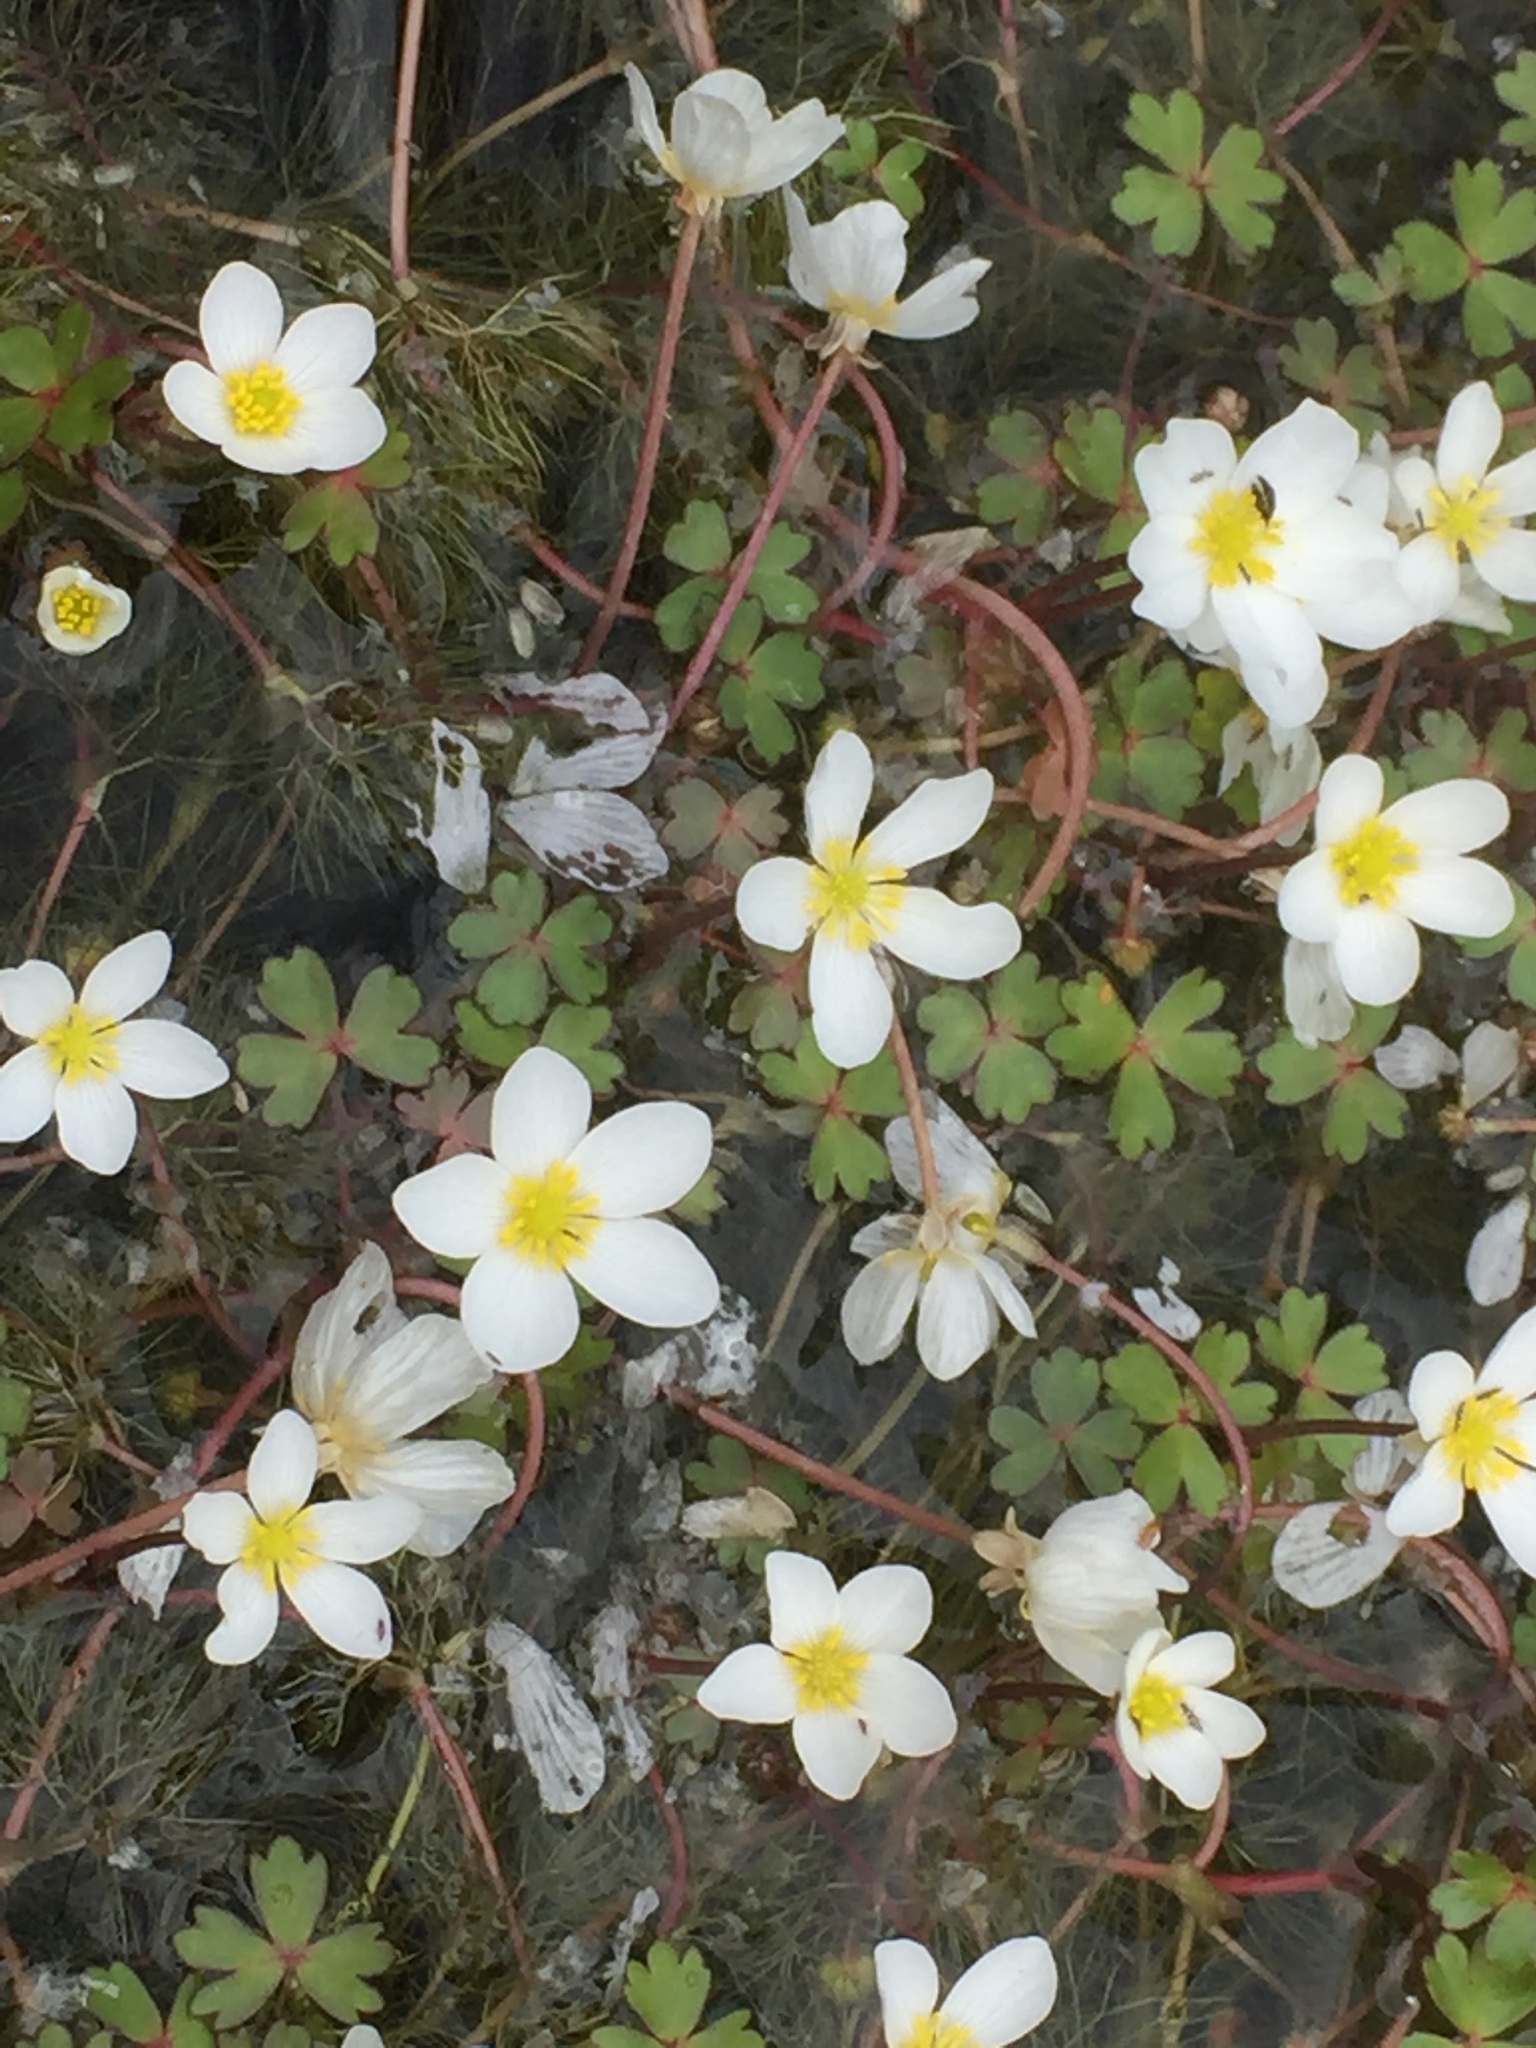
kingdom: Plantae
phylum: Tracheophyta
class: Magnoliopsida
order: Ranunculales
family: Ranunculaceae
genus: Ranunculus
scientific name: Ranunculus ololeucos
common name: White-flowered buttercup
